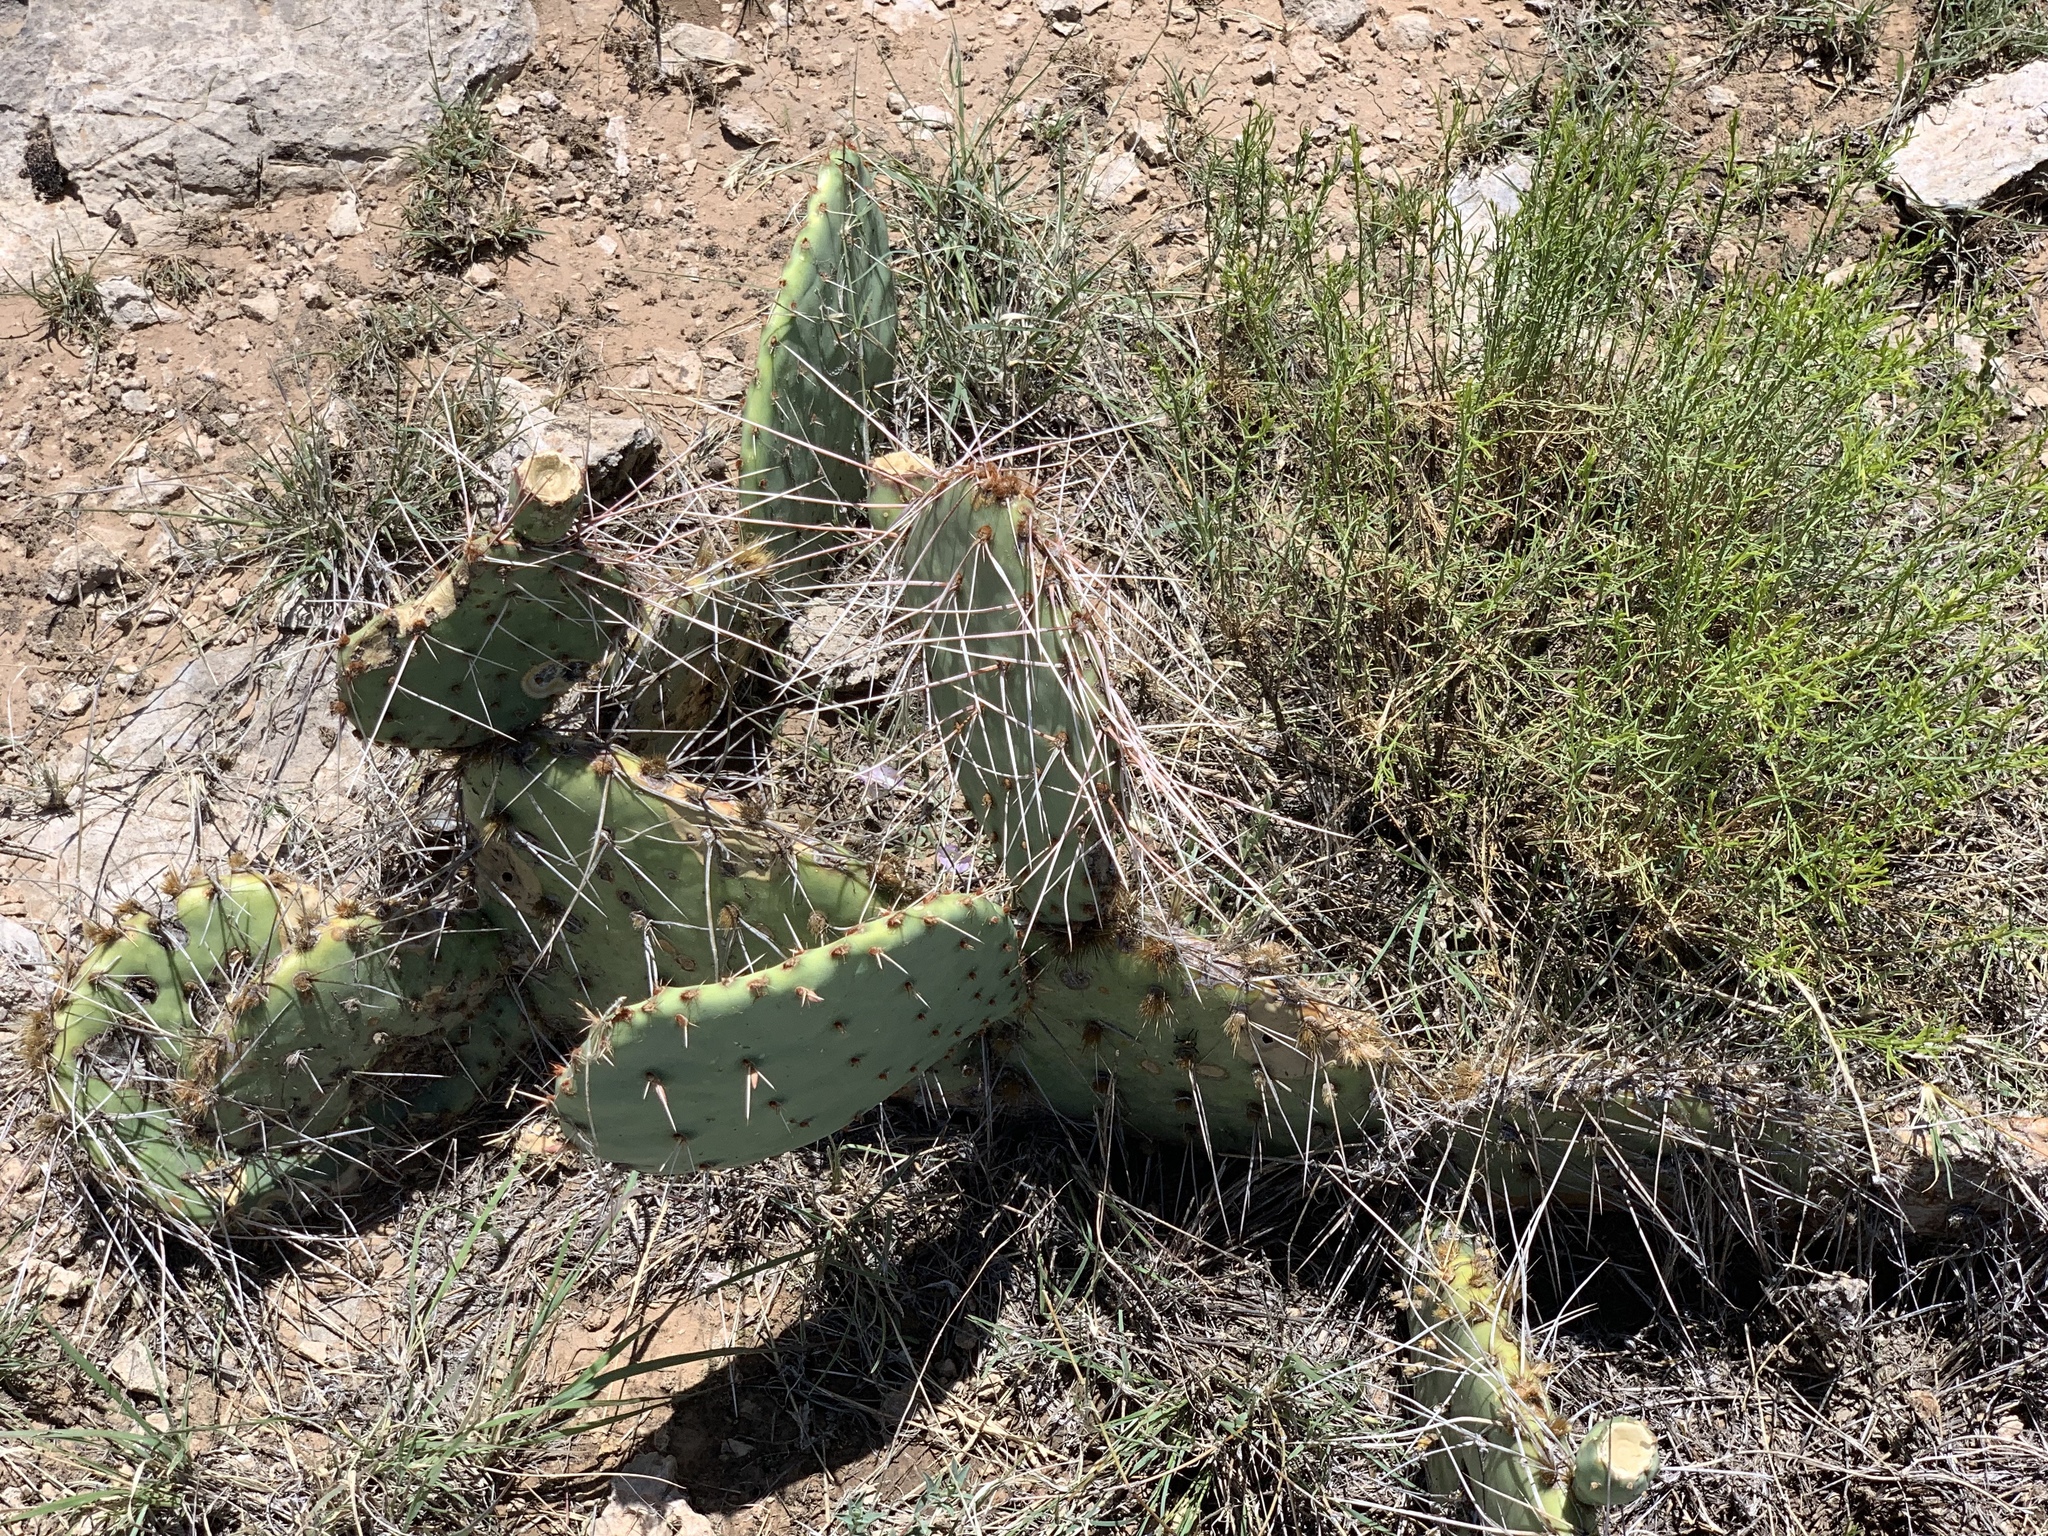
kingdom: Plantae
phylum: Tracheophyta
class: Magnoliopsida
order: Caryophyllales
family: Cactaceae
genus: Opuntia
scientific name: Opuntia macrorhiza
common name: Grassland pricklypear
